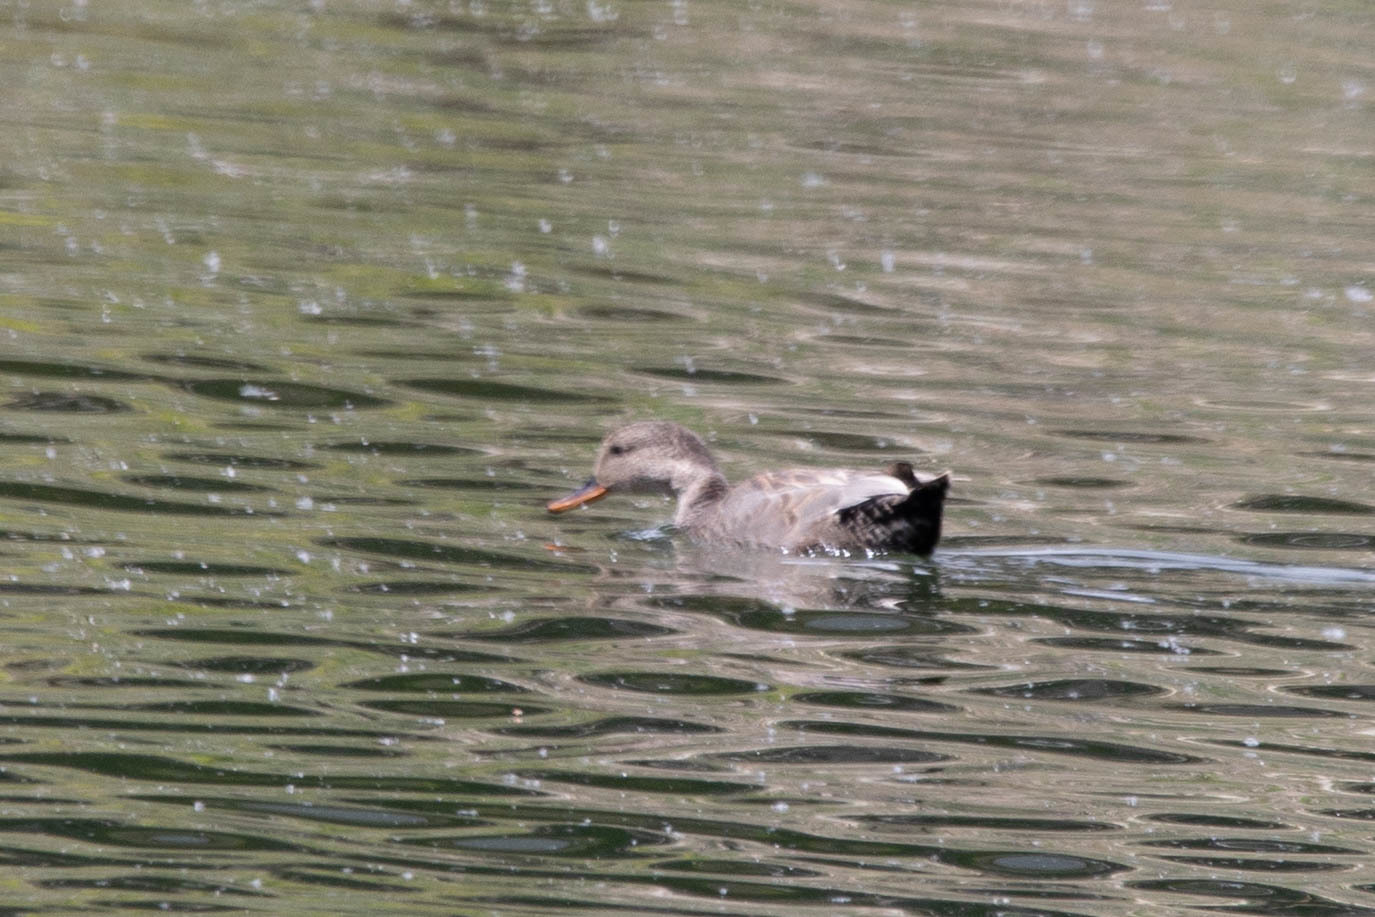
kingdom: Animalia
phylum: Chordata
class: Aves
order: Anseriformes
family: Anatidae
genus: Mareca
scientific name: Mareca strepera
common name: Gadwall
